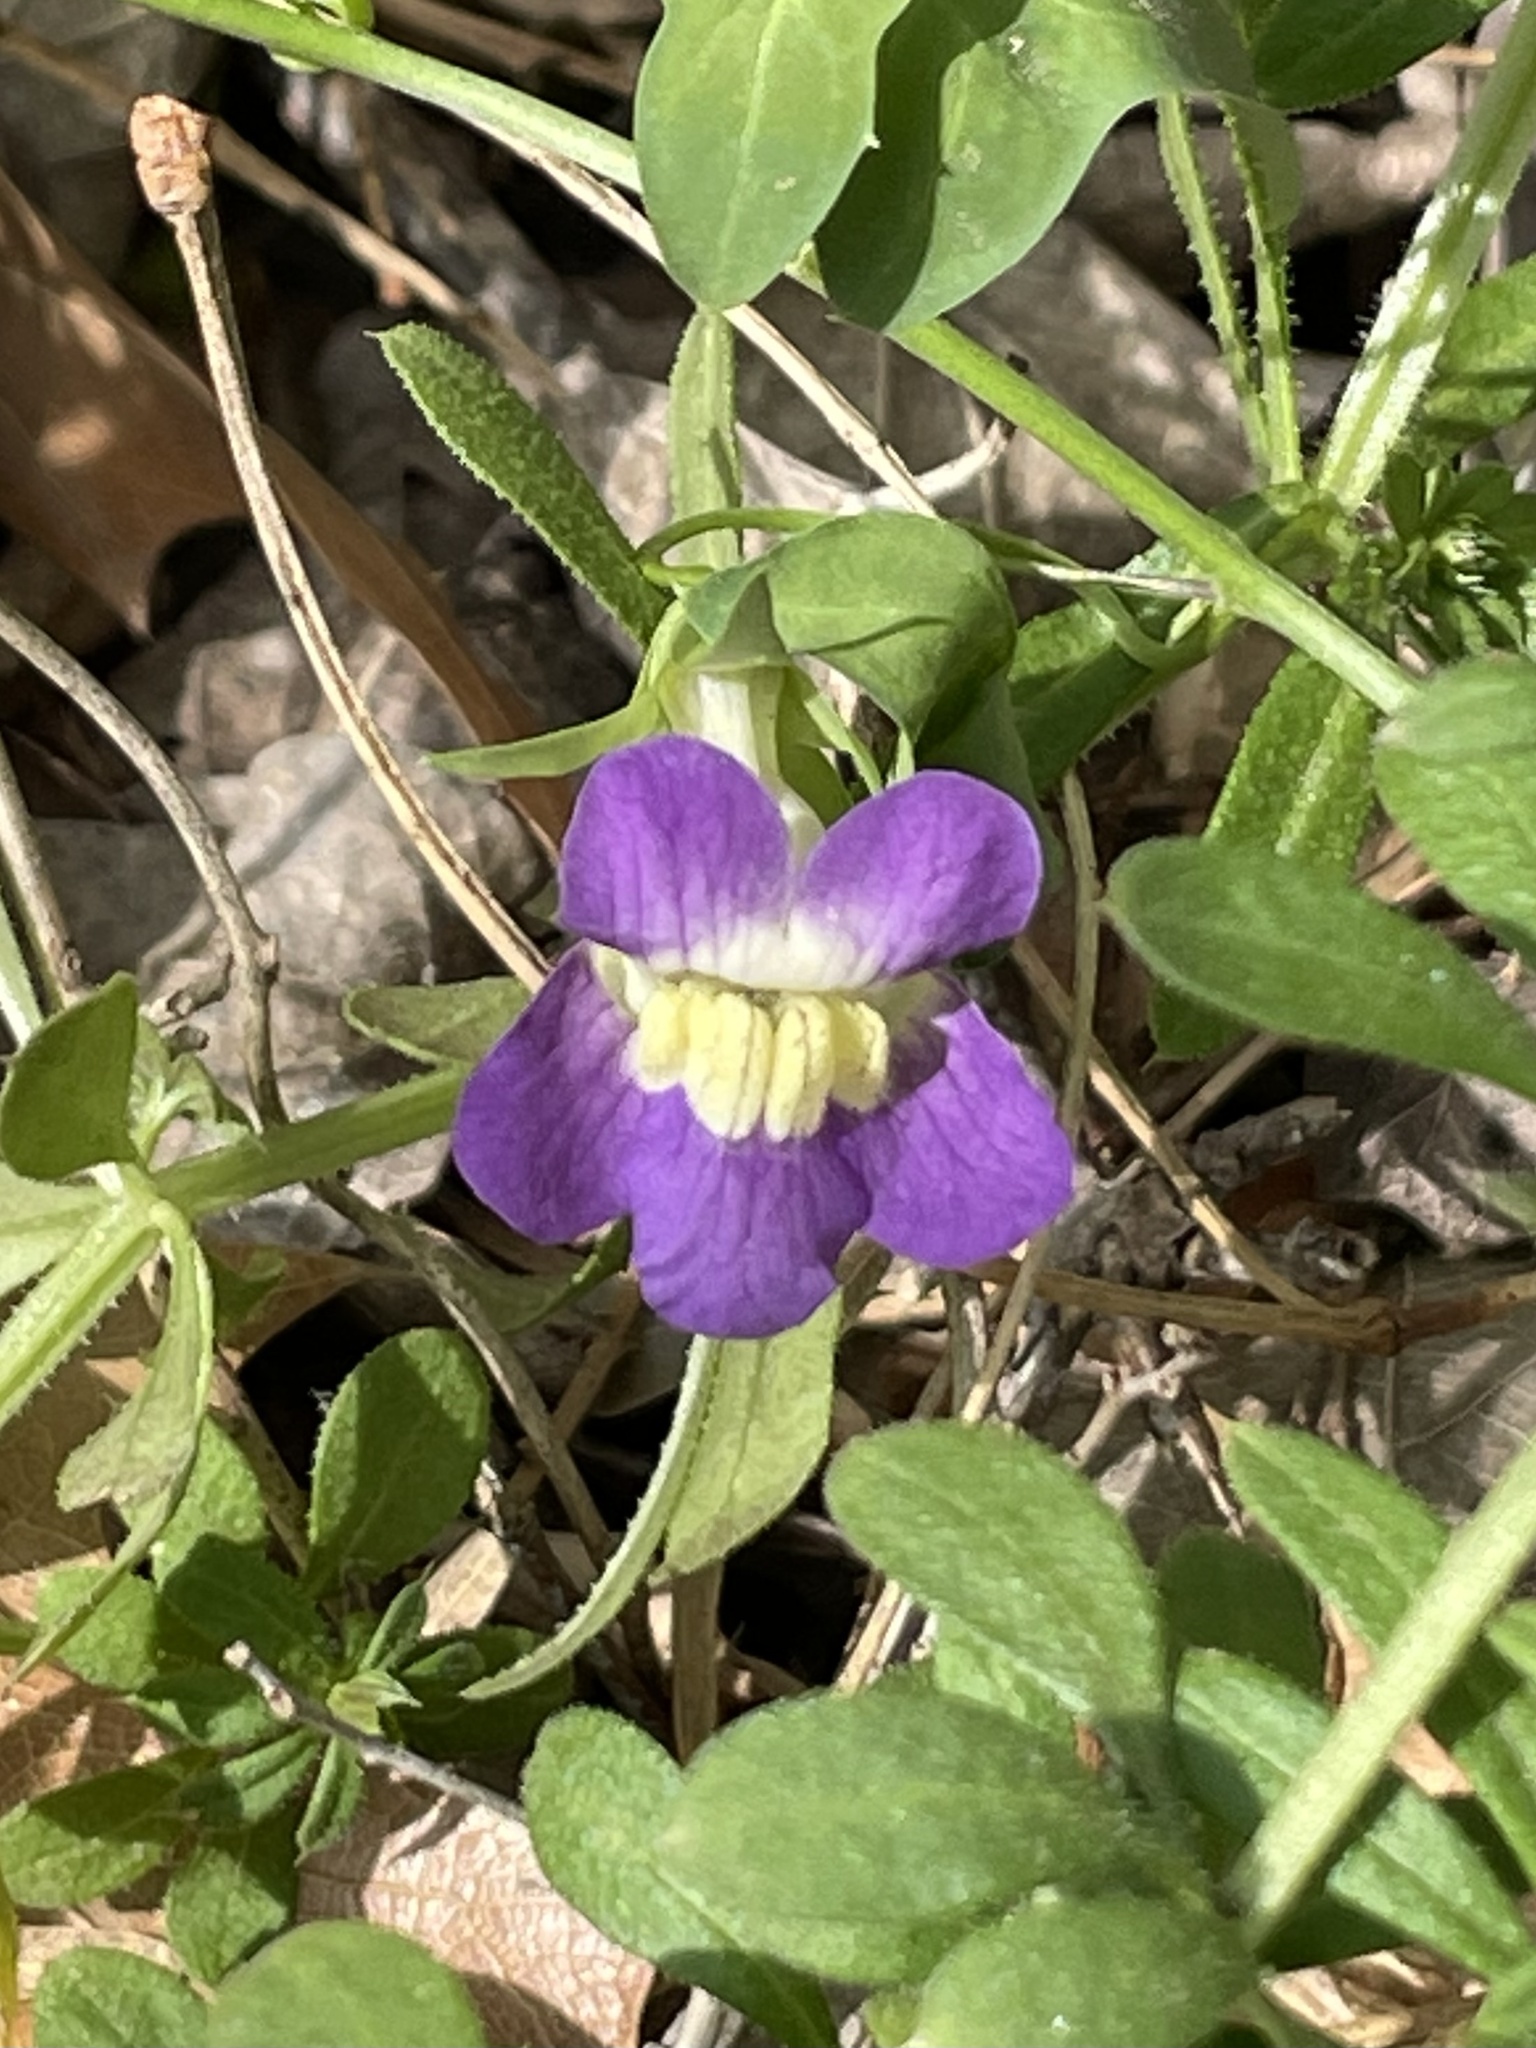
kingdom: Plantae
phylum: Tracheophyta
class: Magnoliopsida
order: Lamiales
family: Plantaginaceae
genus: Maurandella
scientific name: Maurandella antirrhiniflora
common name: Violet twining-snapdragon
